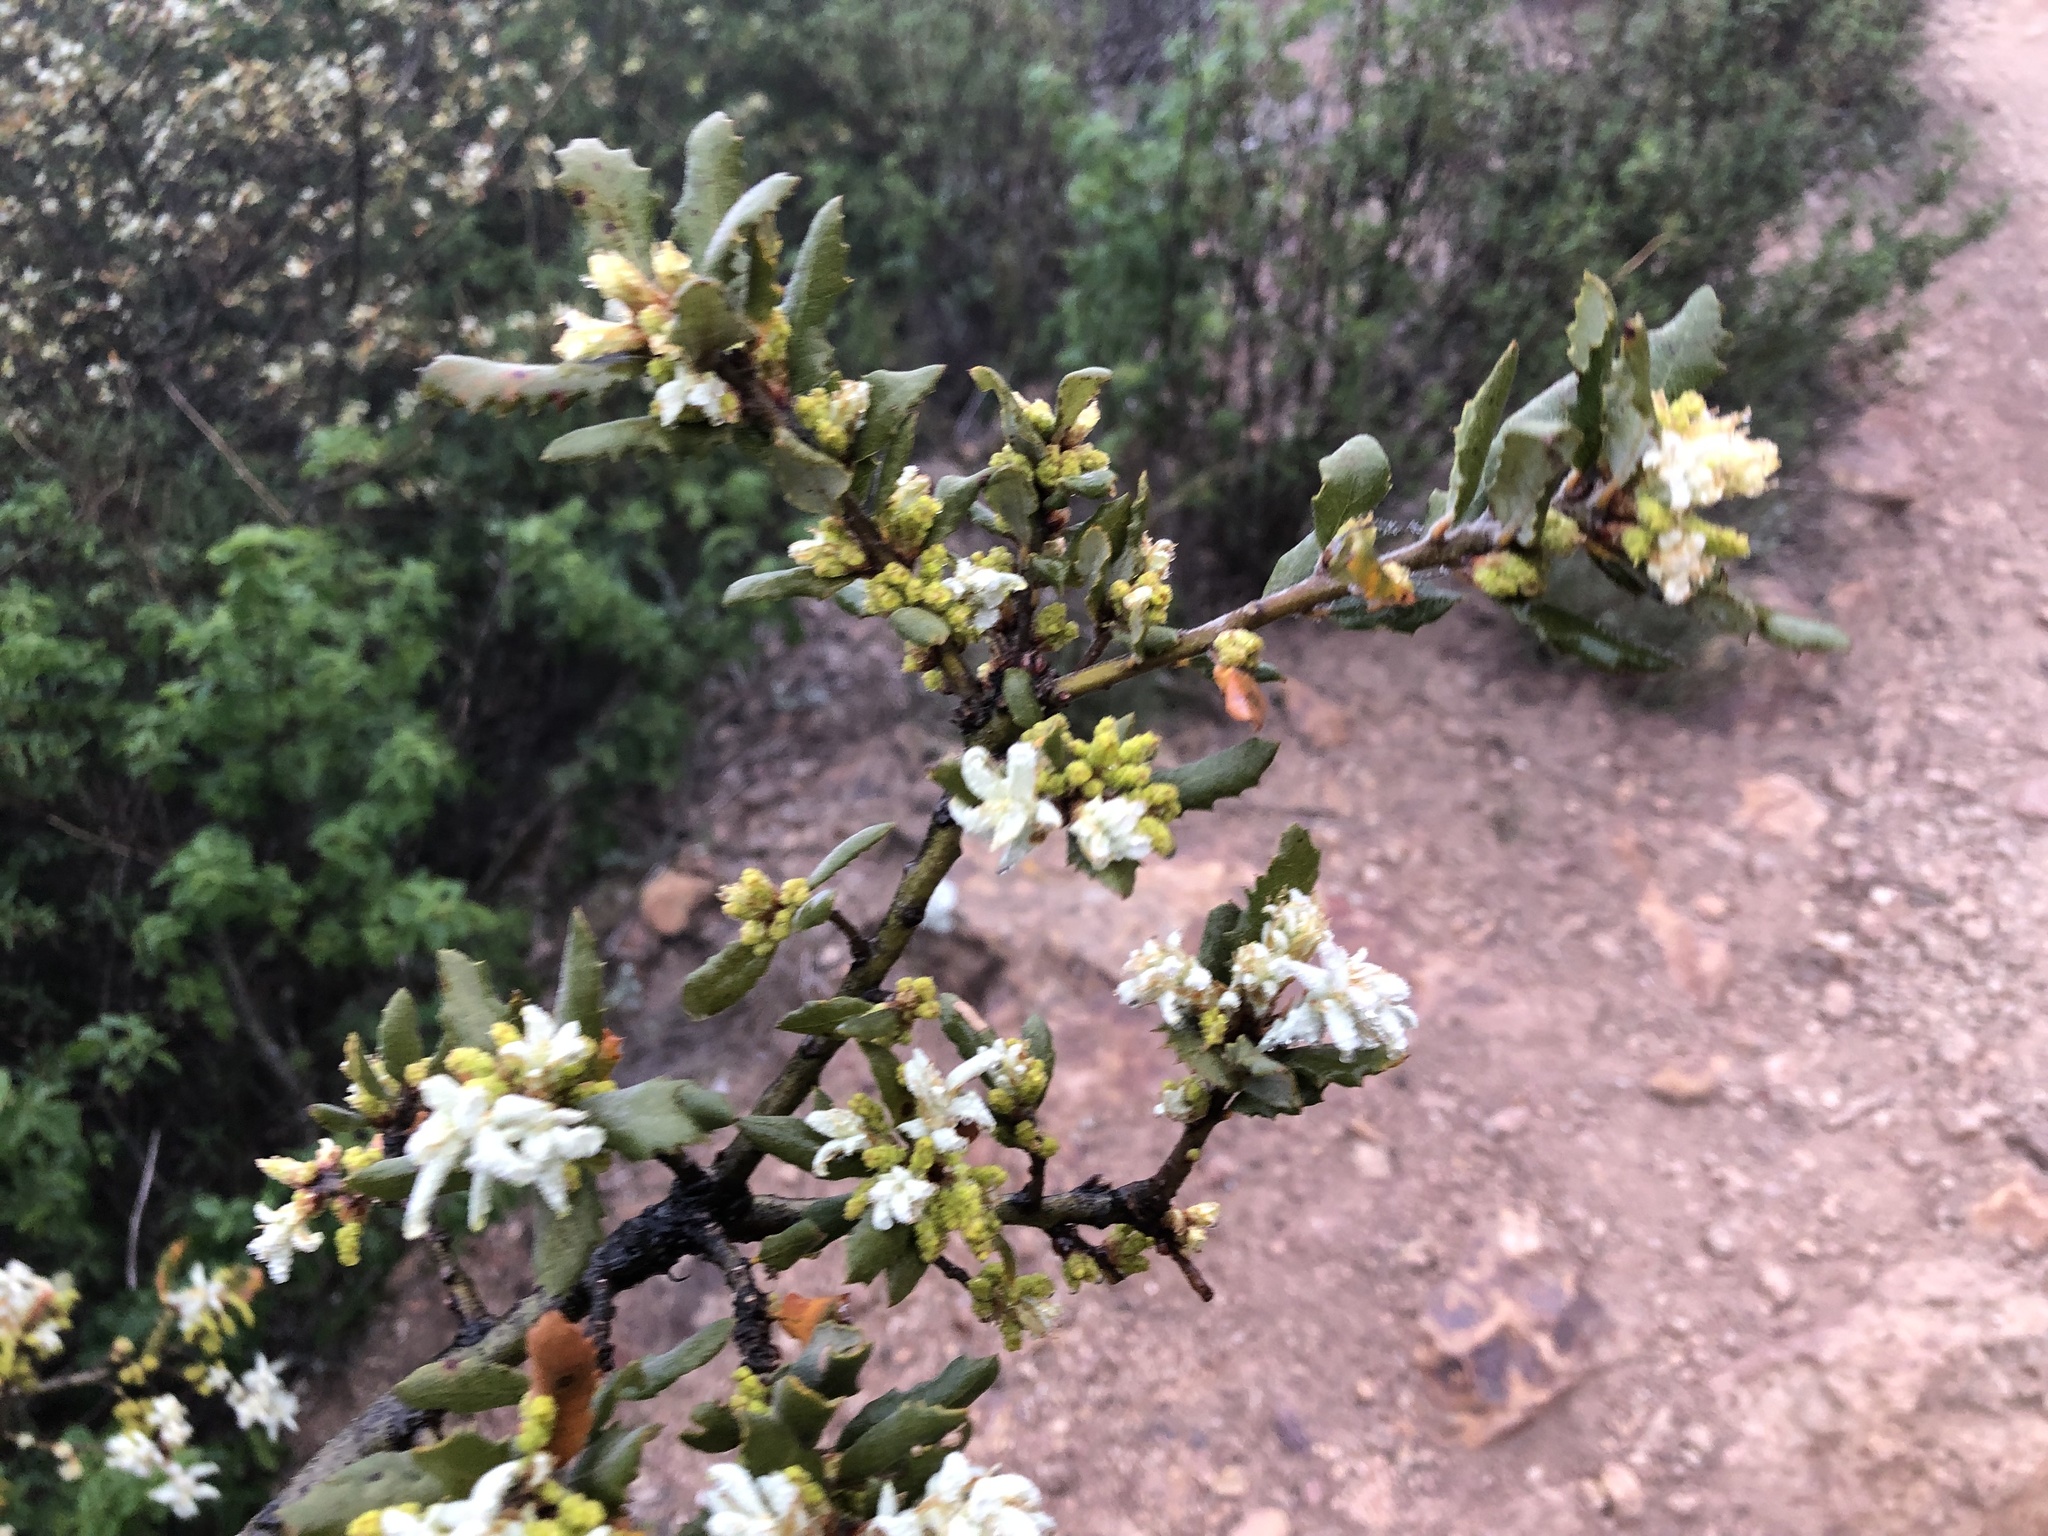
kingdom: Plantae
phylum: Tracheophyta
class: Magnoliopsida
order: Fagales
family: Fagaceae
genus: Quercus
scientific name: Quercus durata
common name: Leather oak
